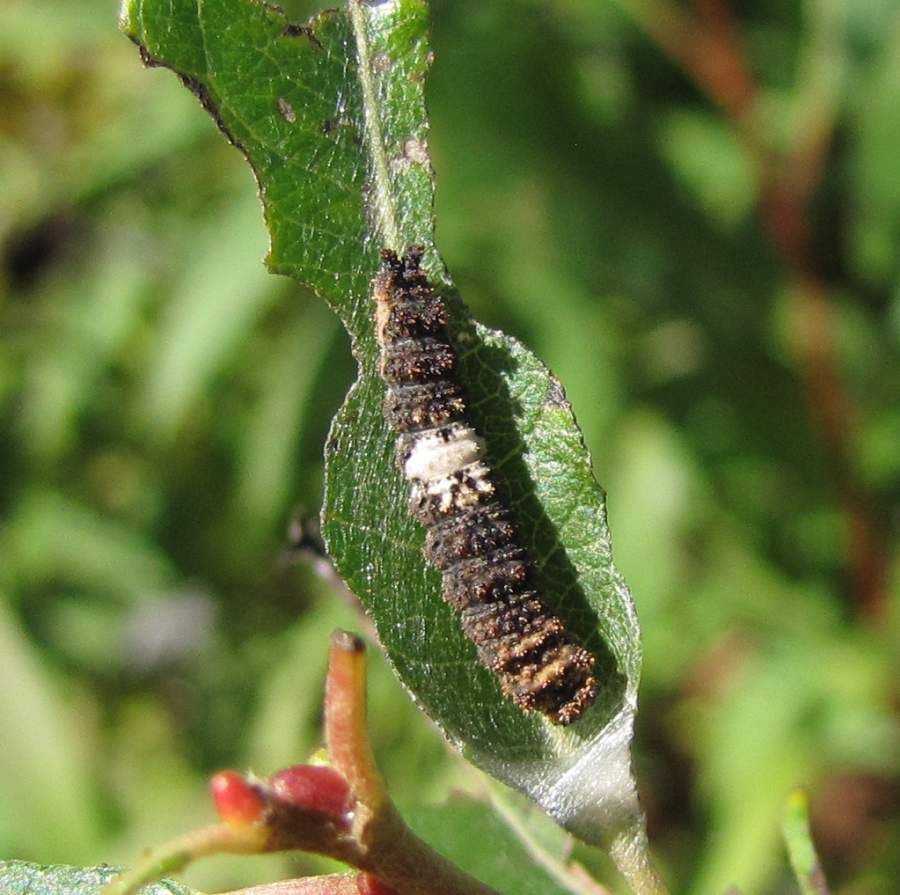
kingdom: Animalia
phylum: Arthropoda
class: Insecta
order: Lepidoptera
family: Nymphalidae
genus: Limenitis
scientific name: Limenitis
